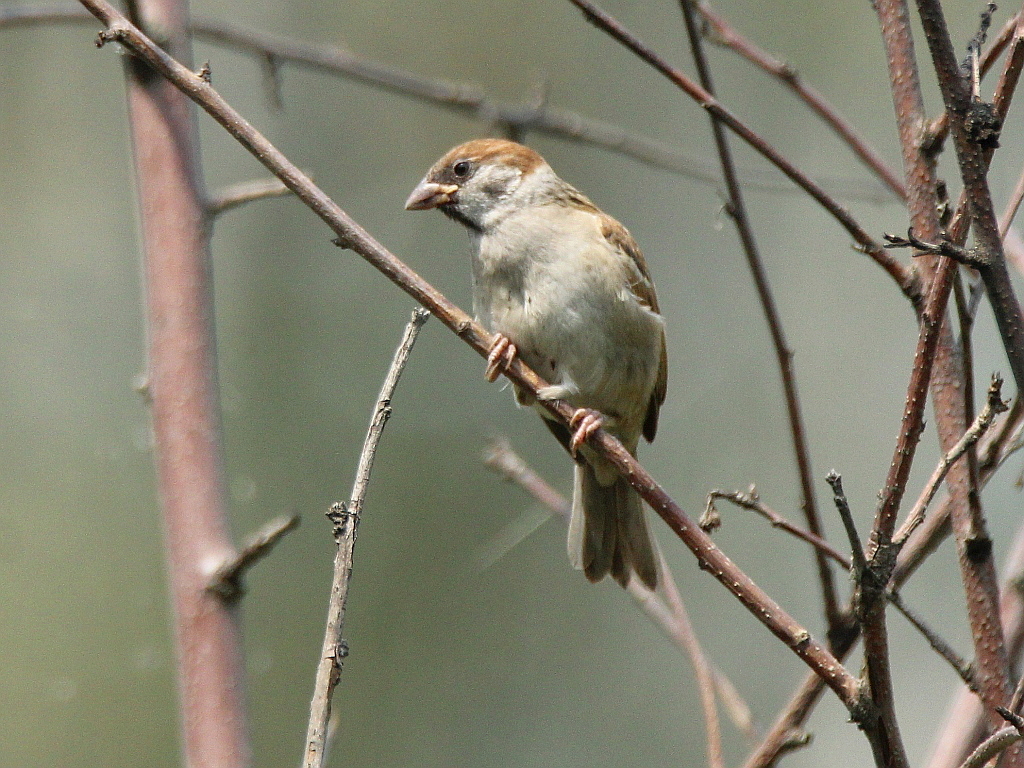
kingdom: Animalia
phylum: Chordata
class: Aves
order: Passeriformes
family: Passeridae
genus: Passer
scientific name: Passer montanus
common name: Eurasian tree sparrow
